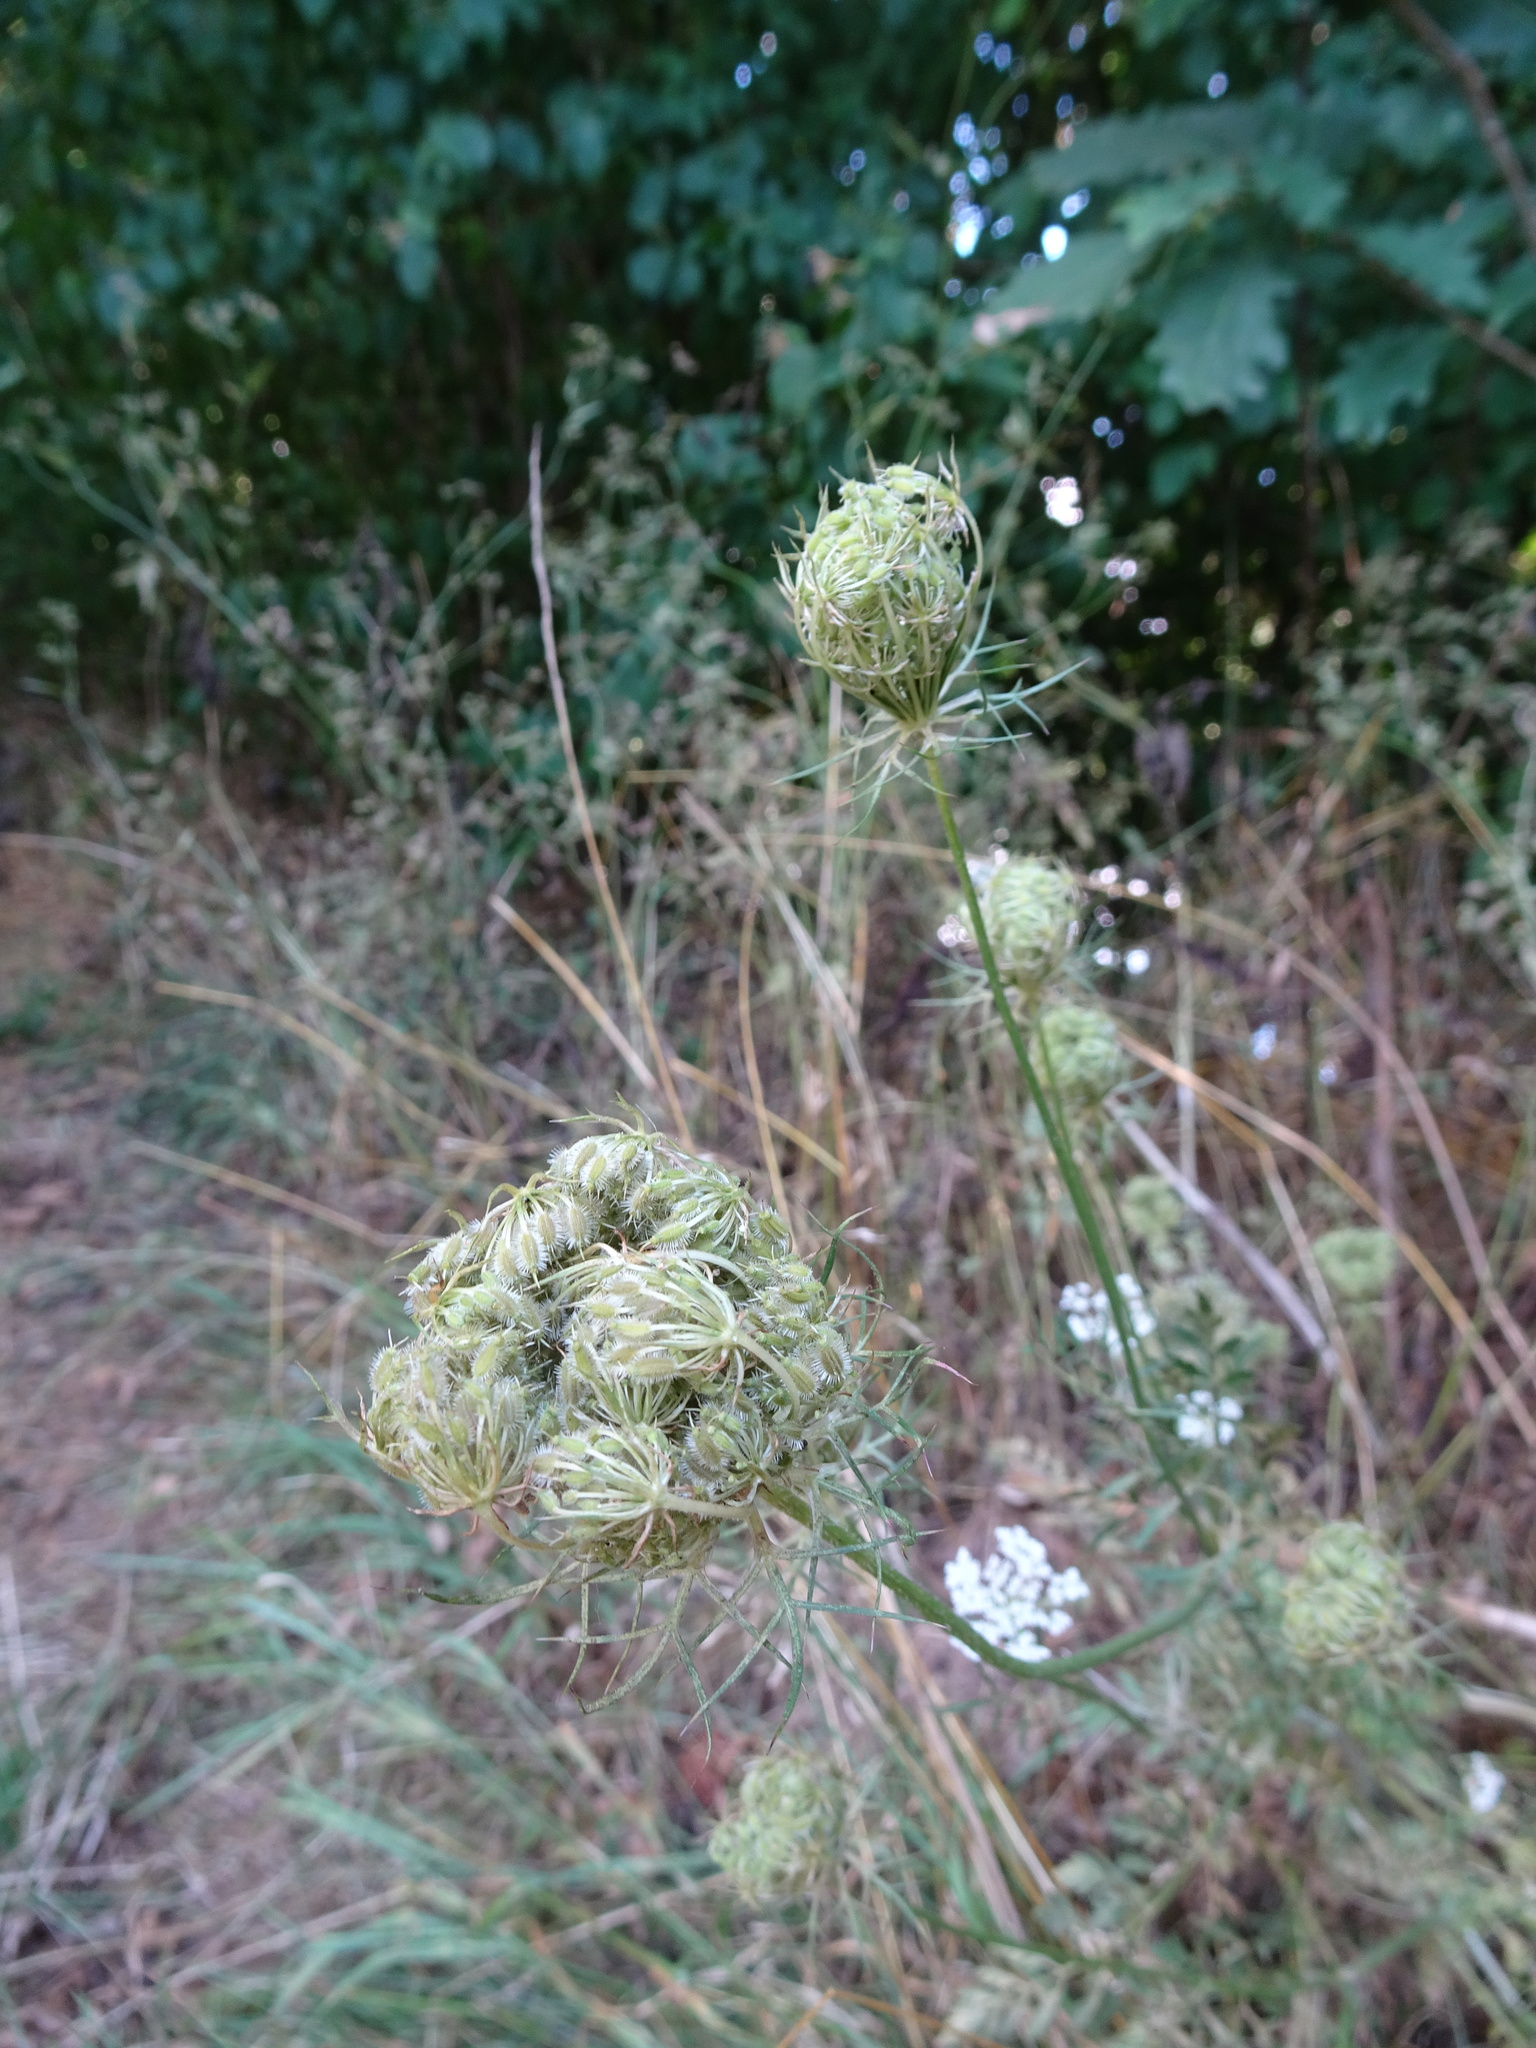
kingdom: Plantae
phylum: Tracheophyta
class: Magnoliopsida
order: Apiales
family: Apiaceae
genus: Daucus
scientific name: Daucus carota
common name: Wild carrot
